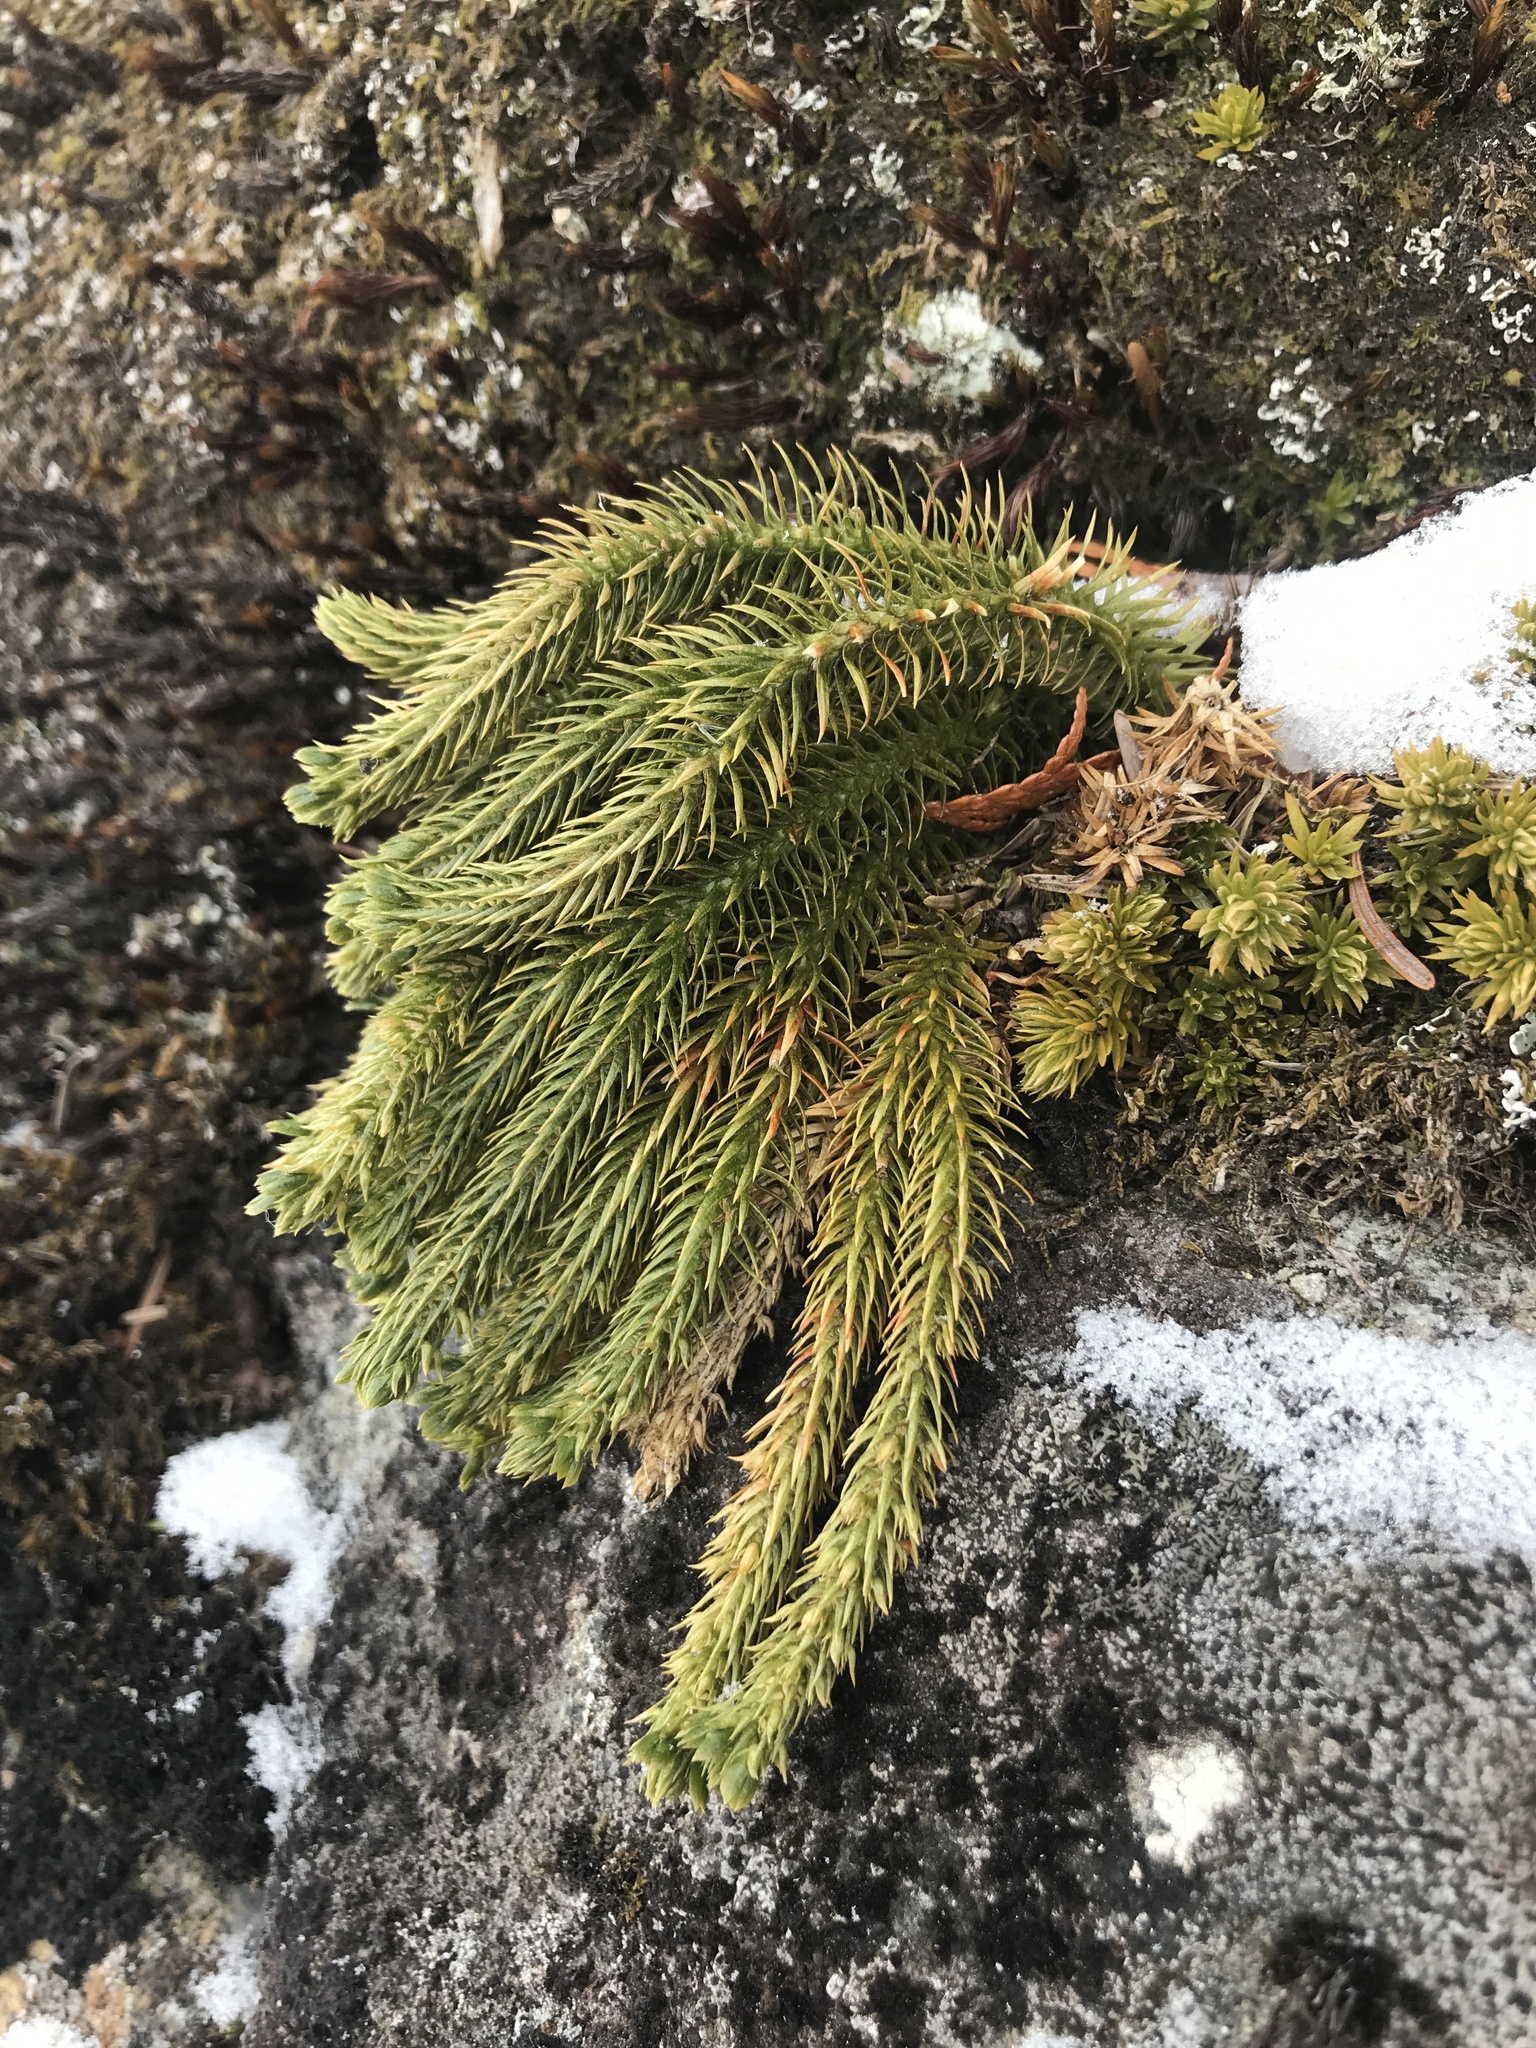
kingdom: Plantae
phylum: Tracheophyta
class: Lycopodiopsida
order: Lycopodiales
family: Lycopodiaceae
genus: Huperzia
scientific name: Huperzia selago
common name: Northern firmoss
